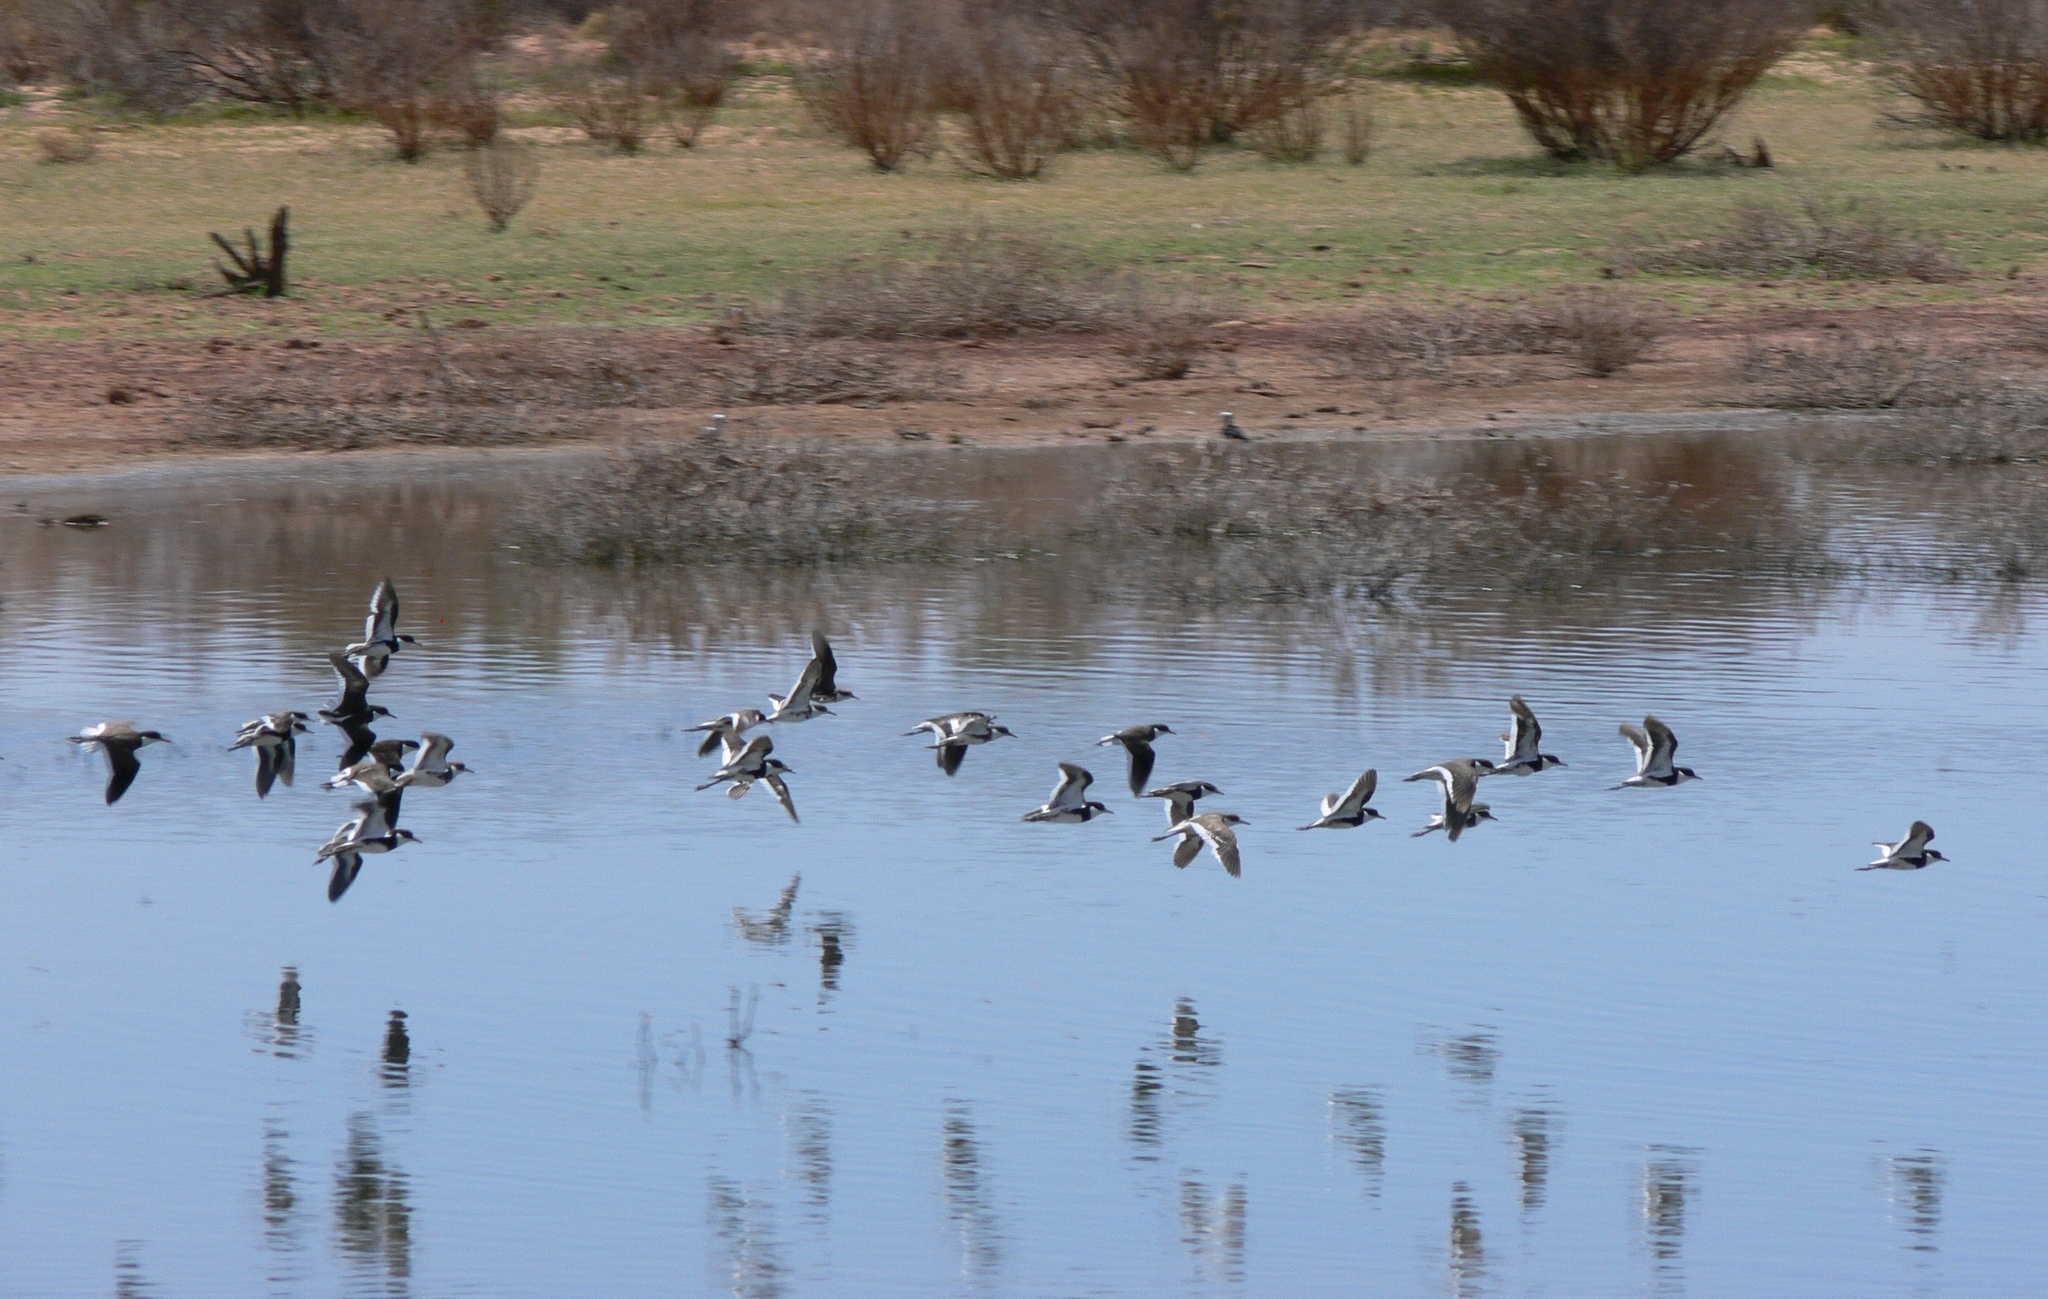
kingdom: Animalia
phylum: Chordata
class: Aves
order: Charadriiformes
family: Charadriidae
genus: Erythrogonys
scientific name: Erythrogonys cinctus
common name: Red-kneed dotterel
